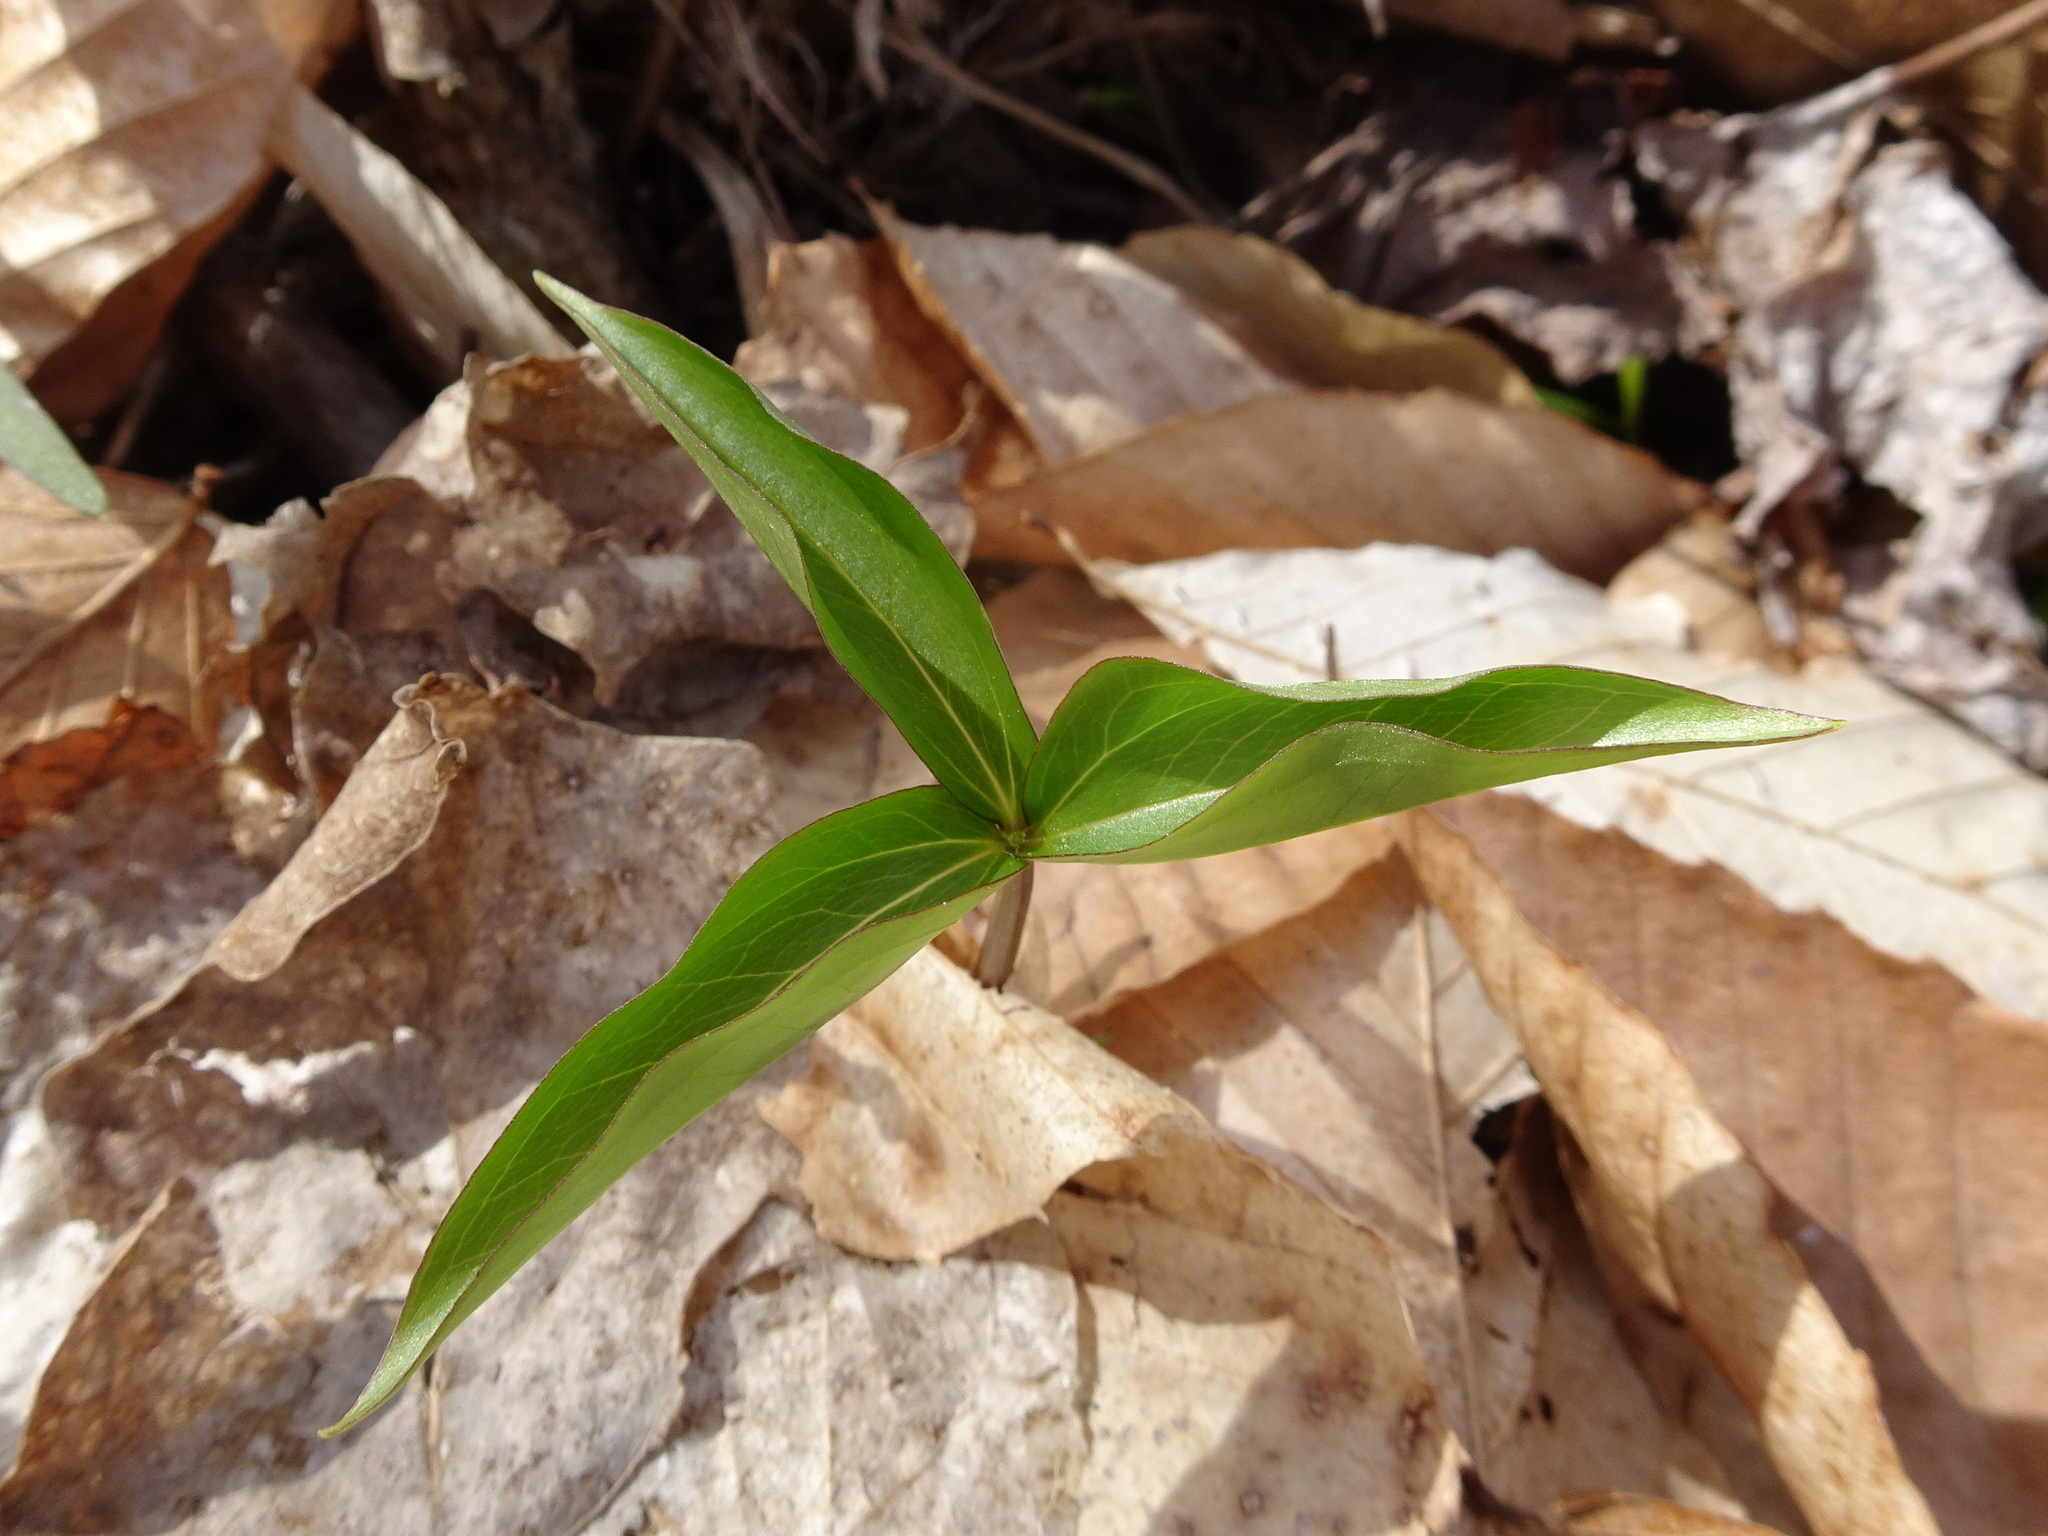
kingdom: Plantae
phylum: Tracheophyta
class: Liliopsida
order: Liliales
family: Melanthiaceae
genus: Trillium
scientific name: Trillium grandiflorum
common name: Great white trillium
